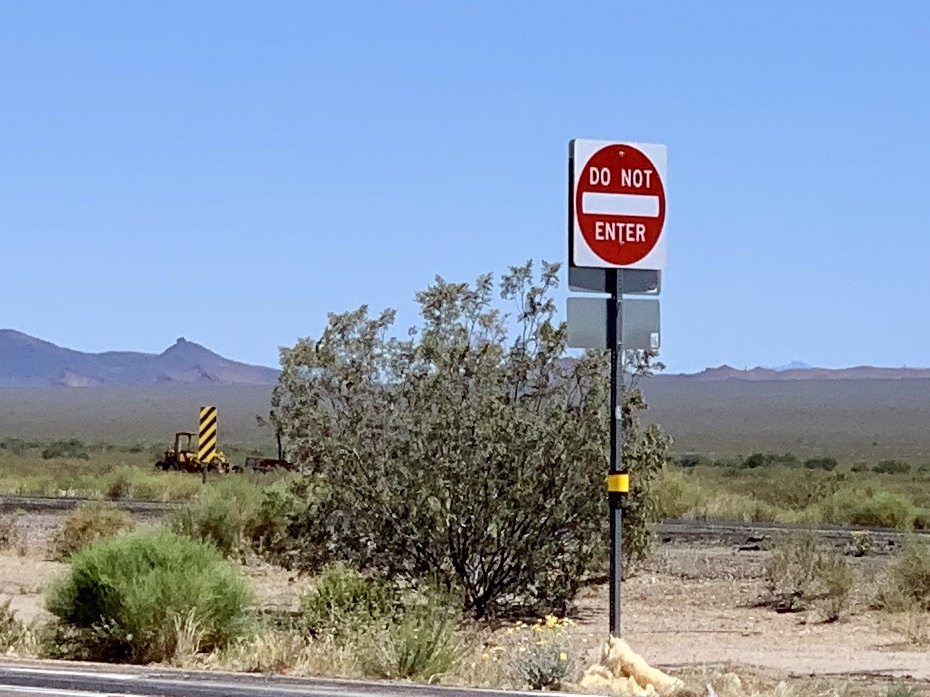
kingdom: Plantae
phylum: Tracheophyta
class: Magnoliopsida
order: Zygophyllales
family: Zygophyllaceae
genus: Larrea
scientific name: Larrea tridentata
